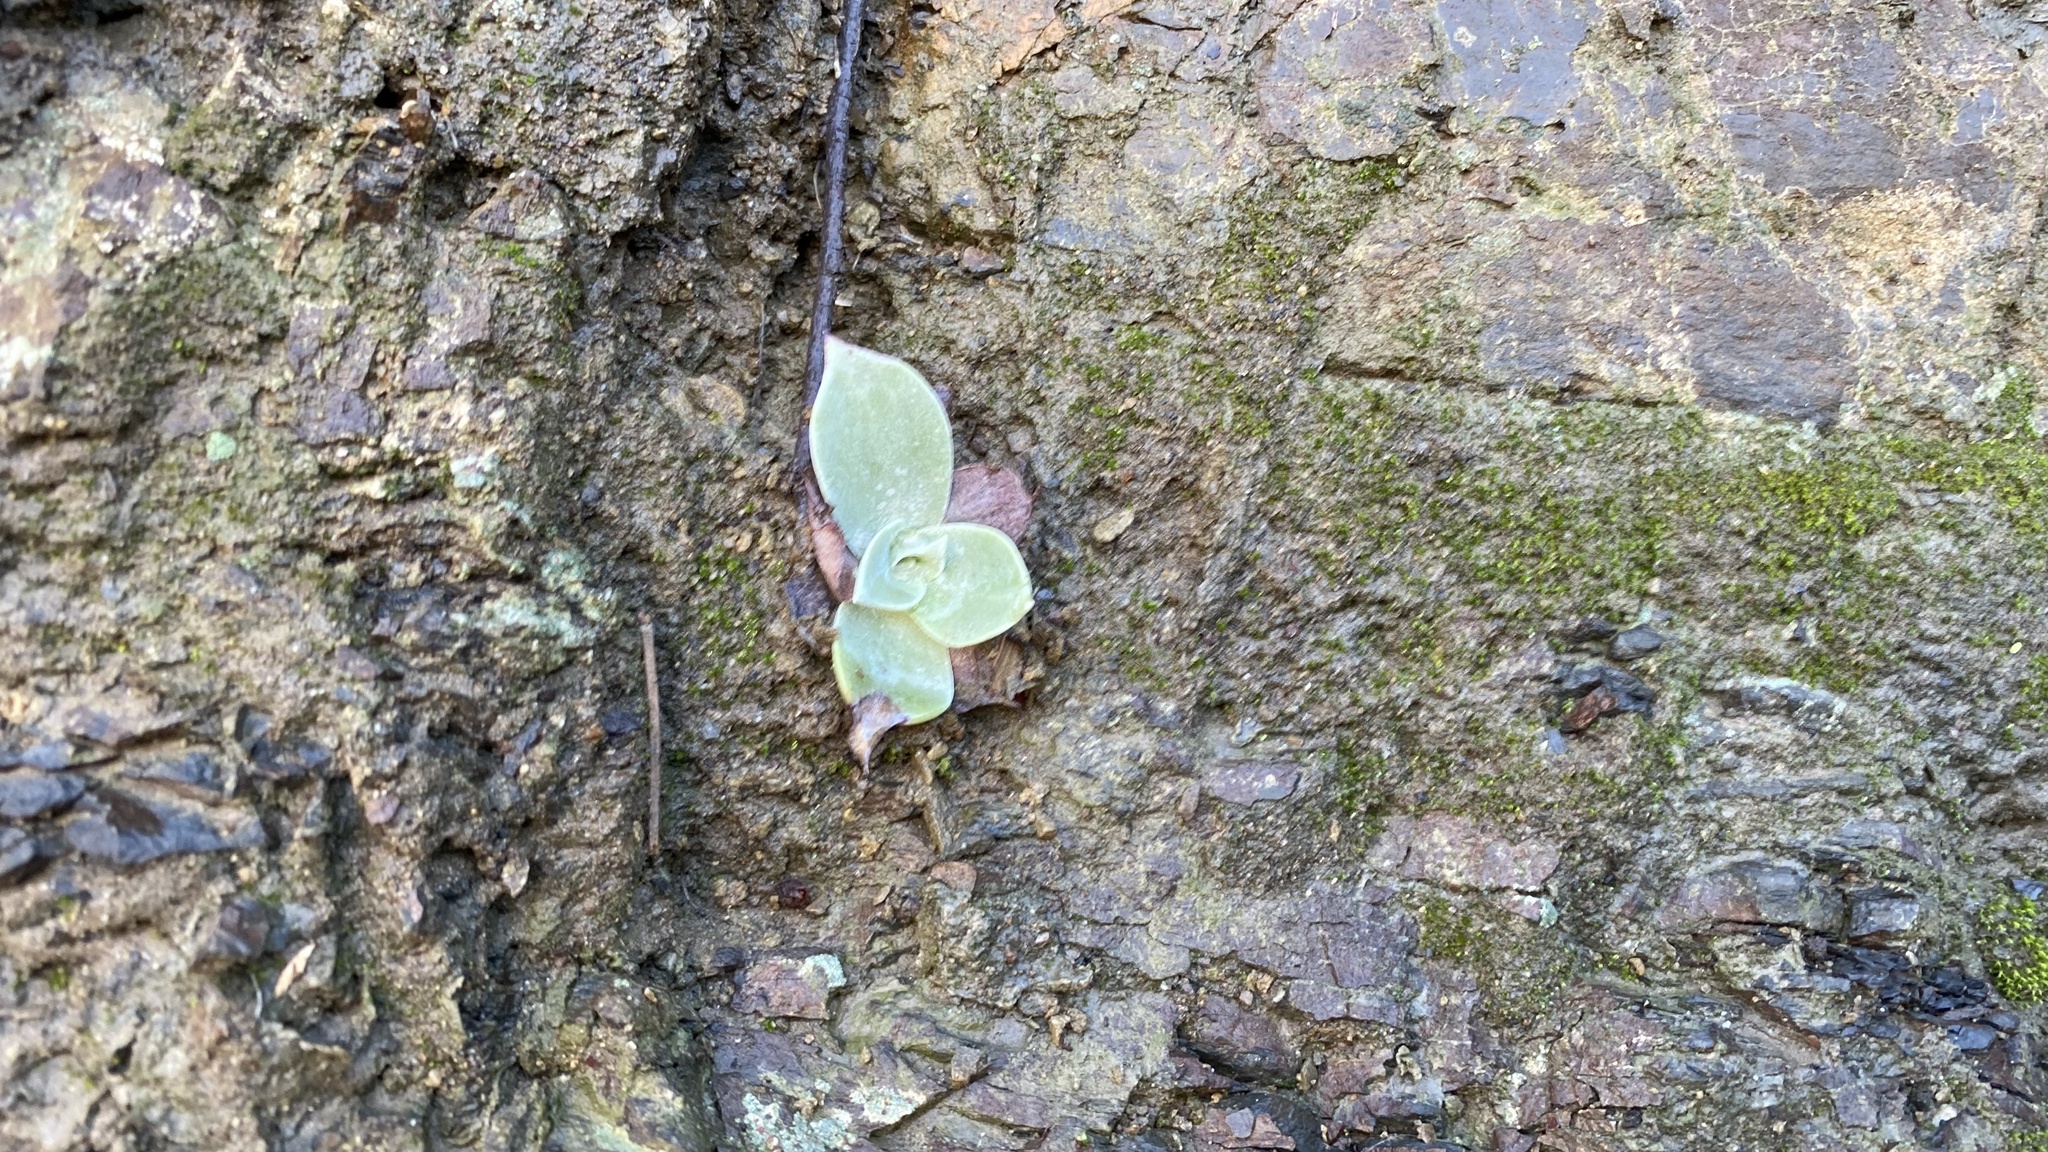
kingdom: Plantae
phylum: Tracheophyta
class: Magnoliopsida
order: Saxifragales
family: Crassulaceae
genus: Dudleya
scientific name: Dudleya pulverulenta
